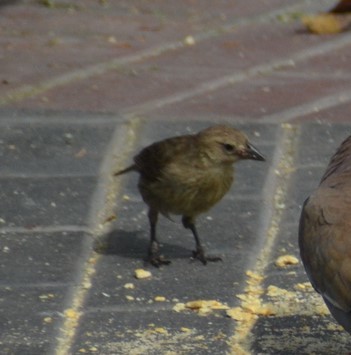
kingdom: Animalia
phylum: Chordata
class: Aves
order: Passeriformes
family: Icteridae
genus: Molothrus
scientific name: Molothrus bonariensis
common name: Shiny cowbird
